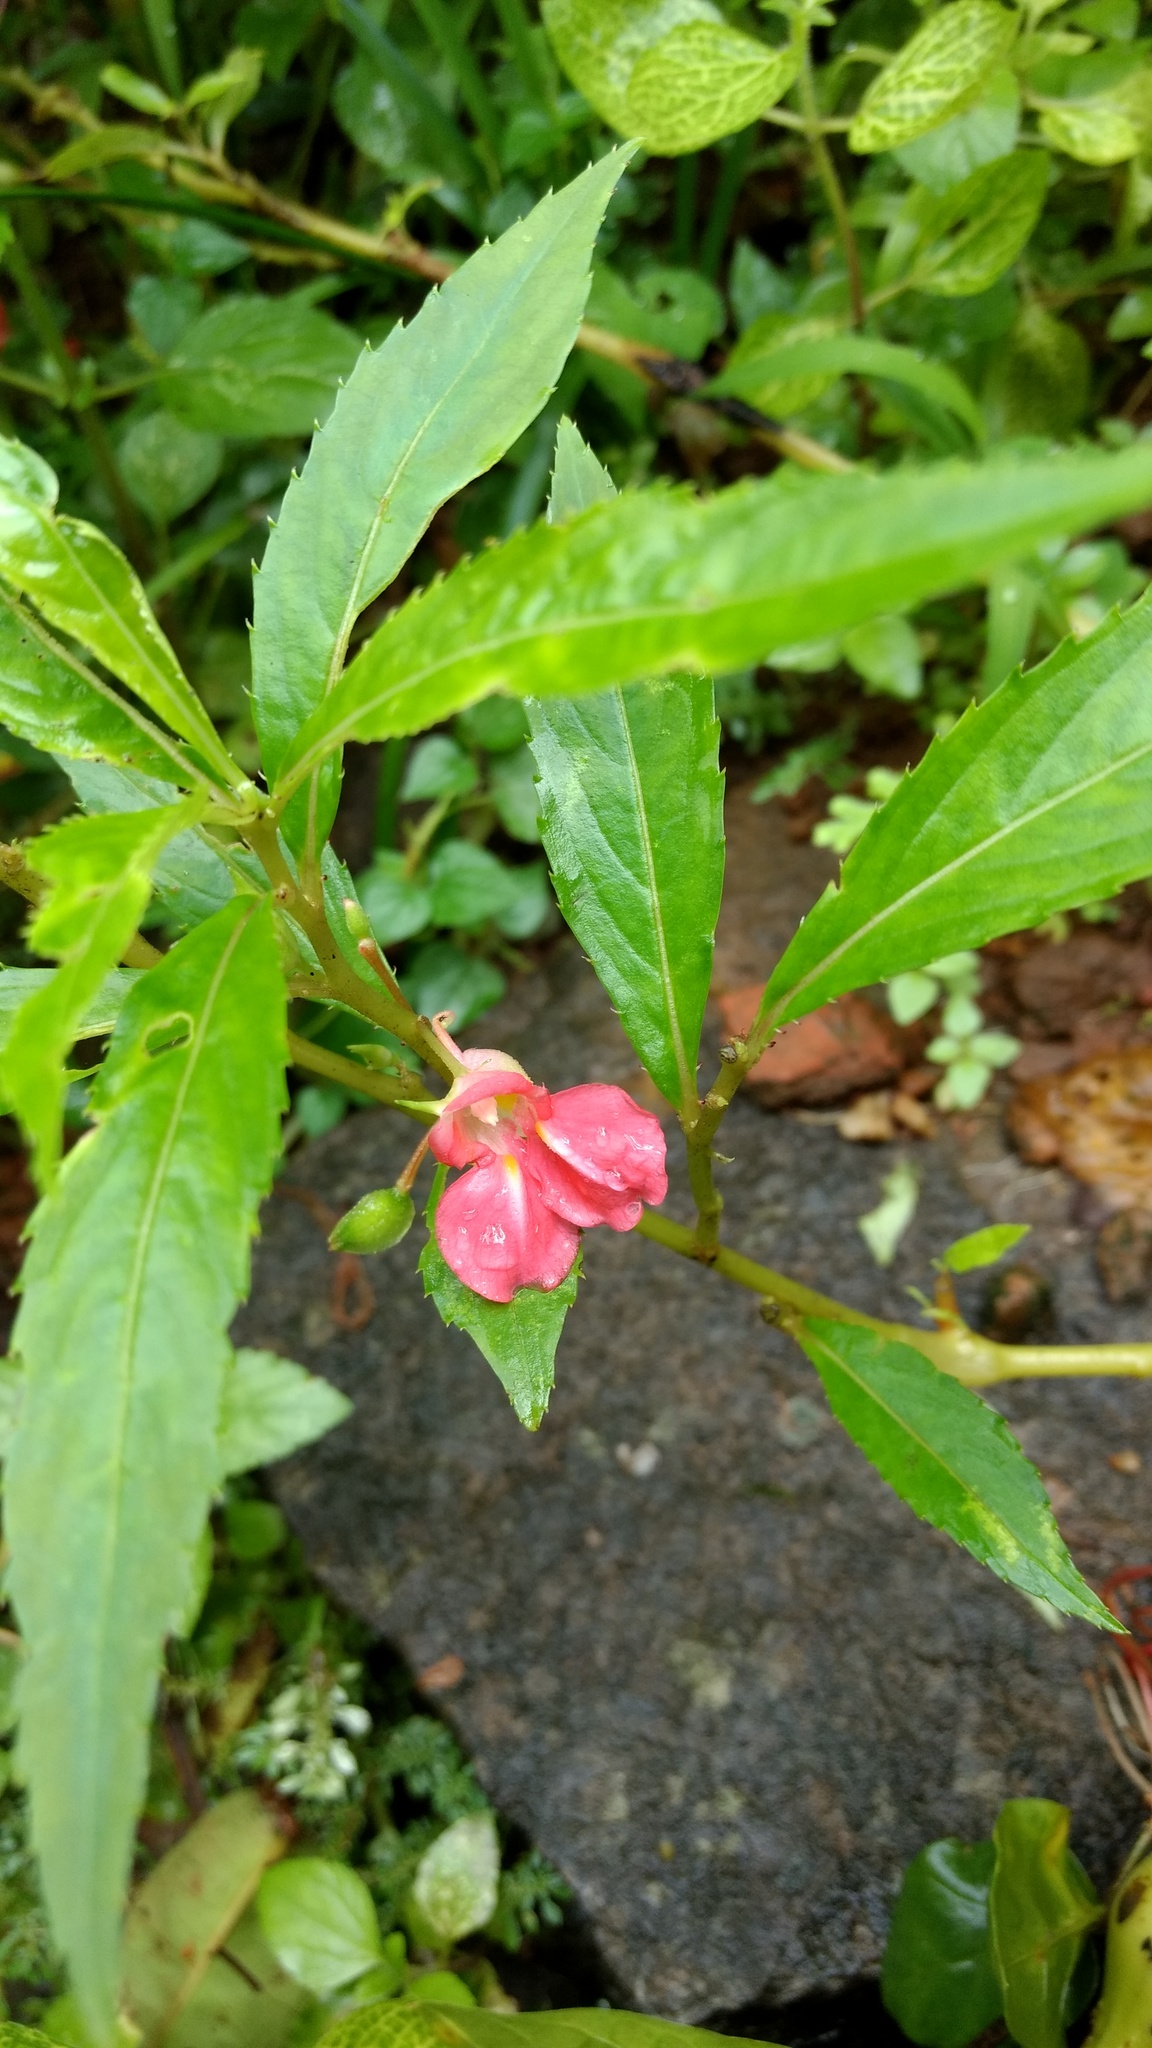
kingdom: Plantae
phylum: Tracheophyta
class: Magnoliopsida
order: Ericales
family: Balsaminaceae
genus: Impatiens
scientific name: Impatiens balsamina
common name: Balsam
